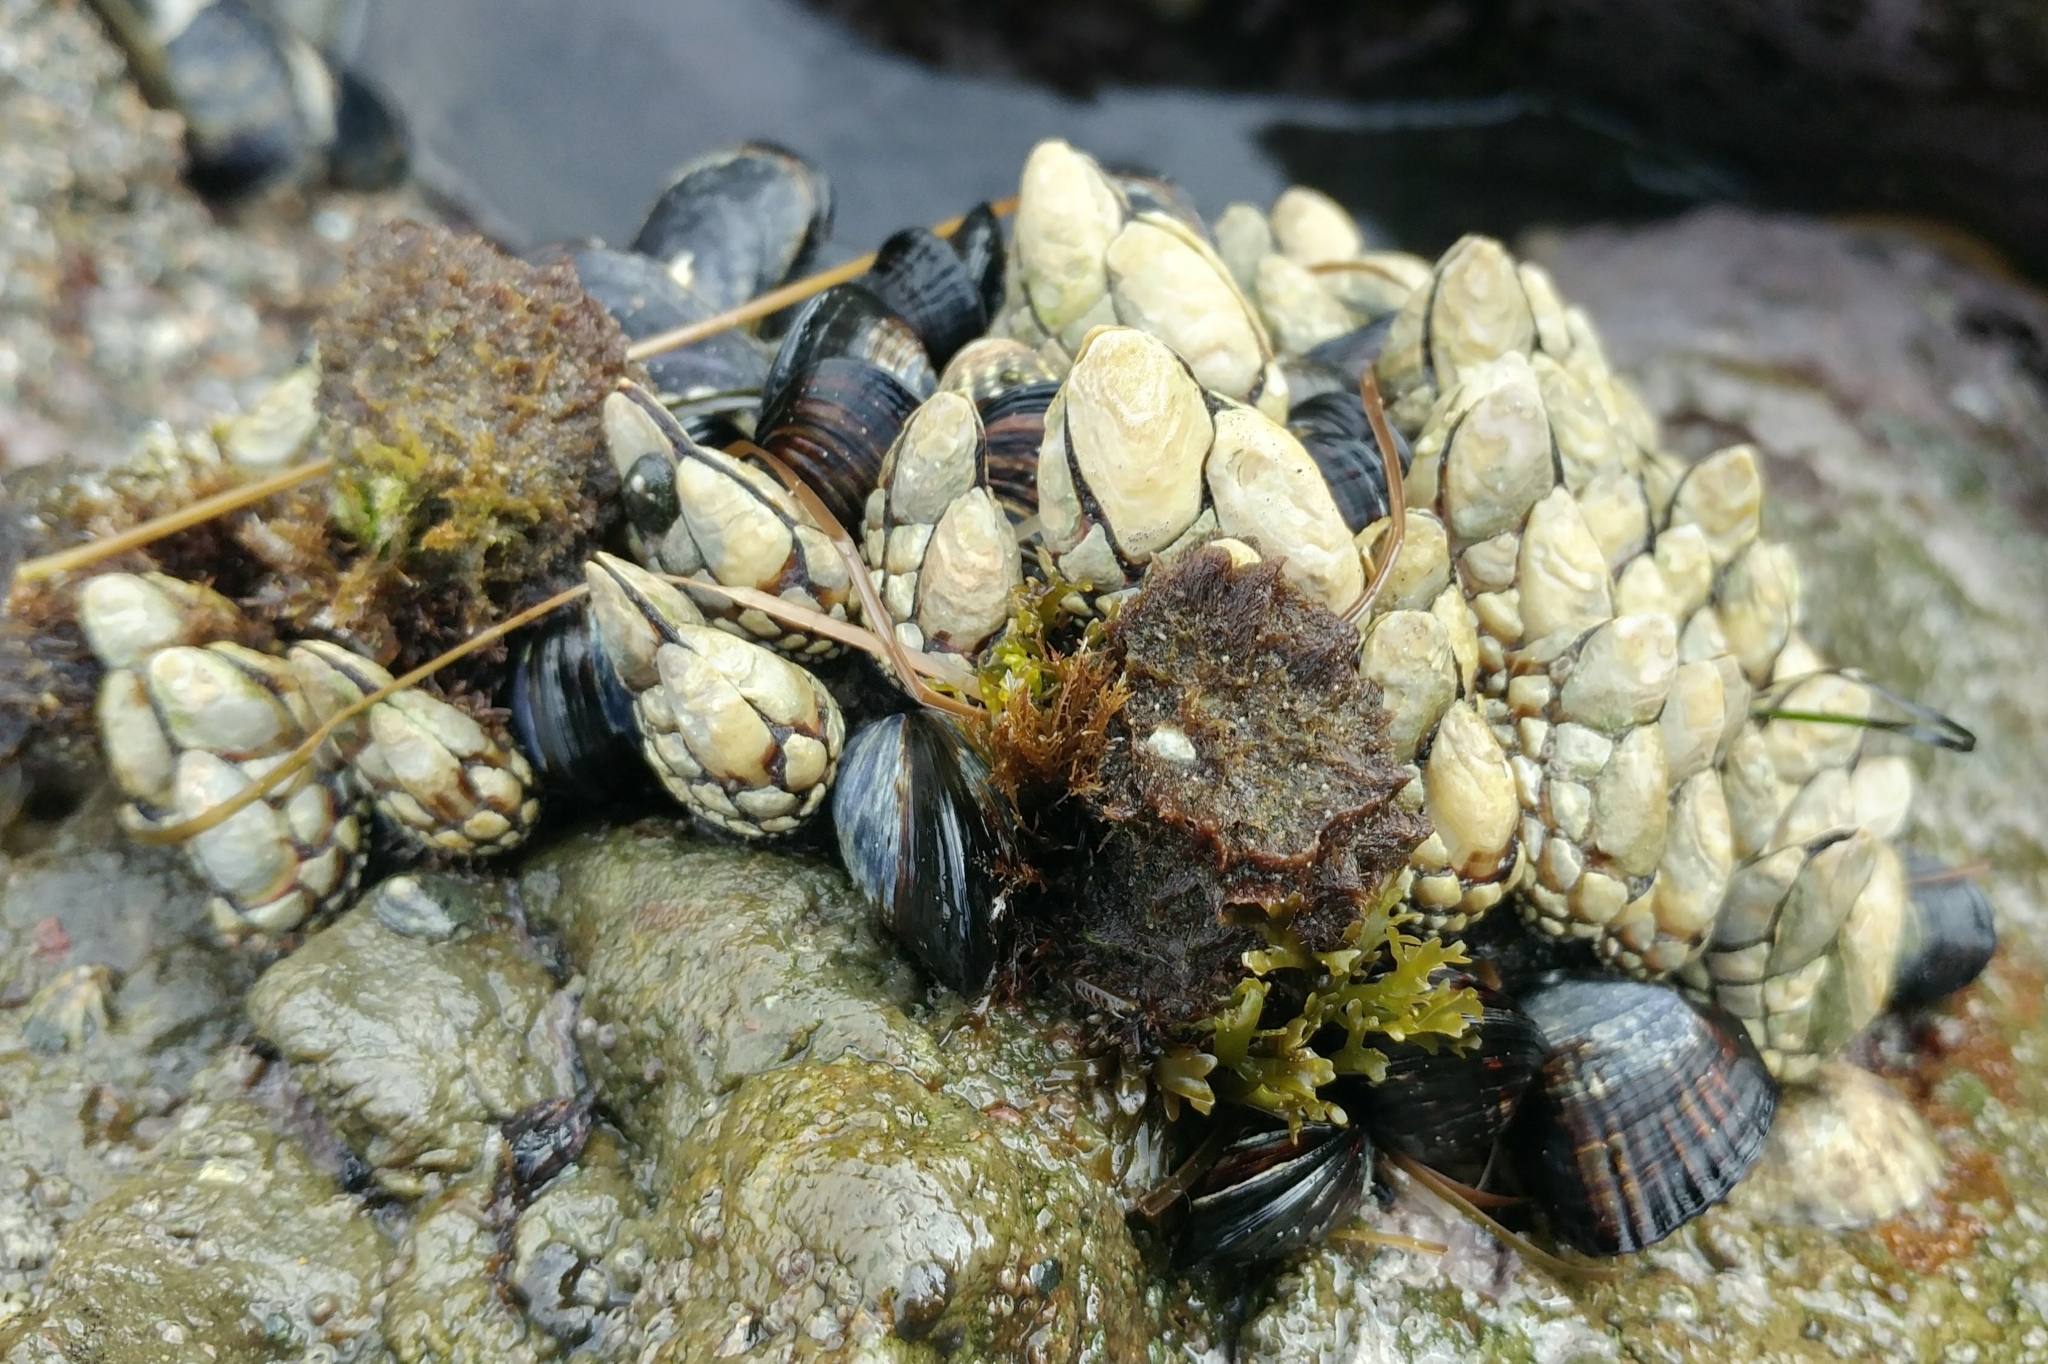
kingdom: Animalia
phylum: Arthropoda
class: Maxillopoda
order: Pedunculata
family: Pollicipedidae
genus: Pollicipes
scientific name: Pollicipes polymerus
